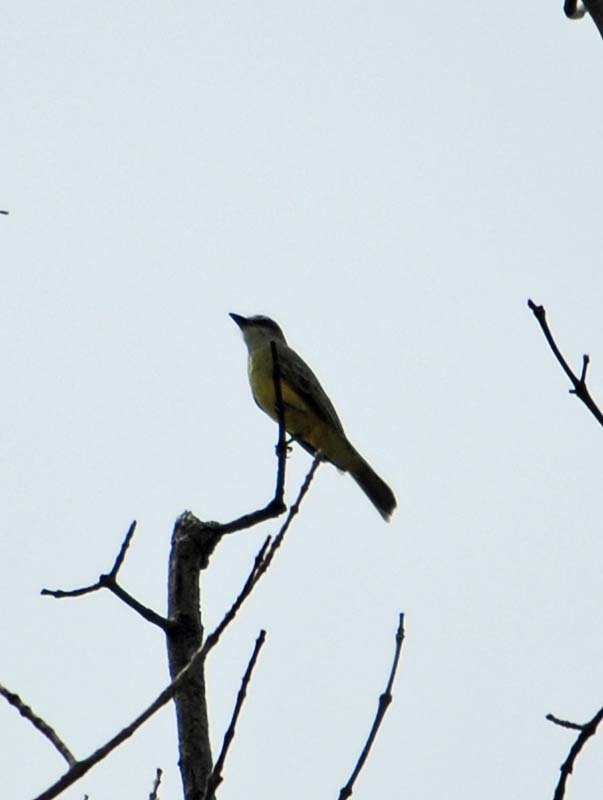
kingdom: Animalia
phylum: Chordata
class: Aves
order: Passeriformes
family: Tyrannidae
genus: Tyrannus
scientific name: Tyrannus melancholicus
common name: Tropical kingbird
